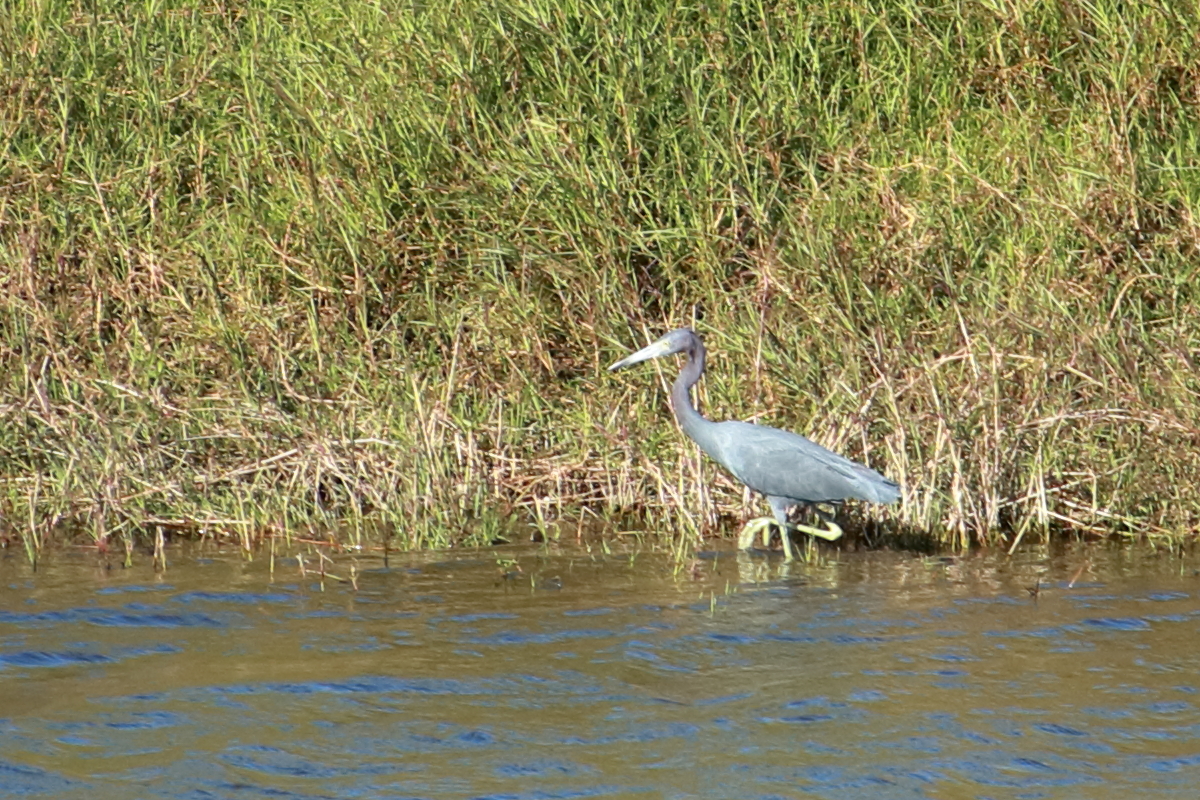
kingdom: Animalia
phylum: Chordata
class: Aves
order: Pelecaniformes
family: Ardeidae
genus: Egretta
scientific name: Egretta caerulea
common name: Little blue heron
